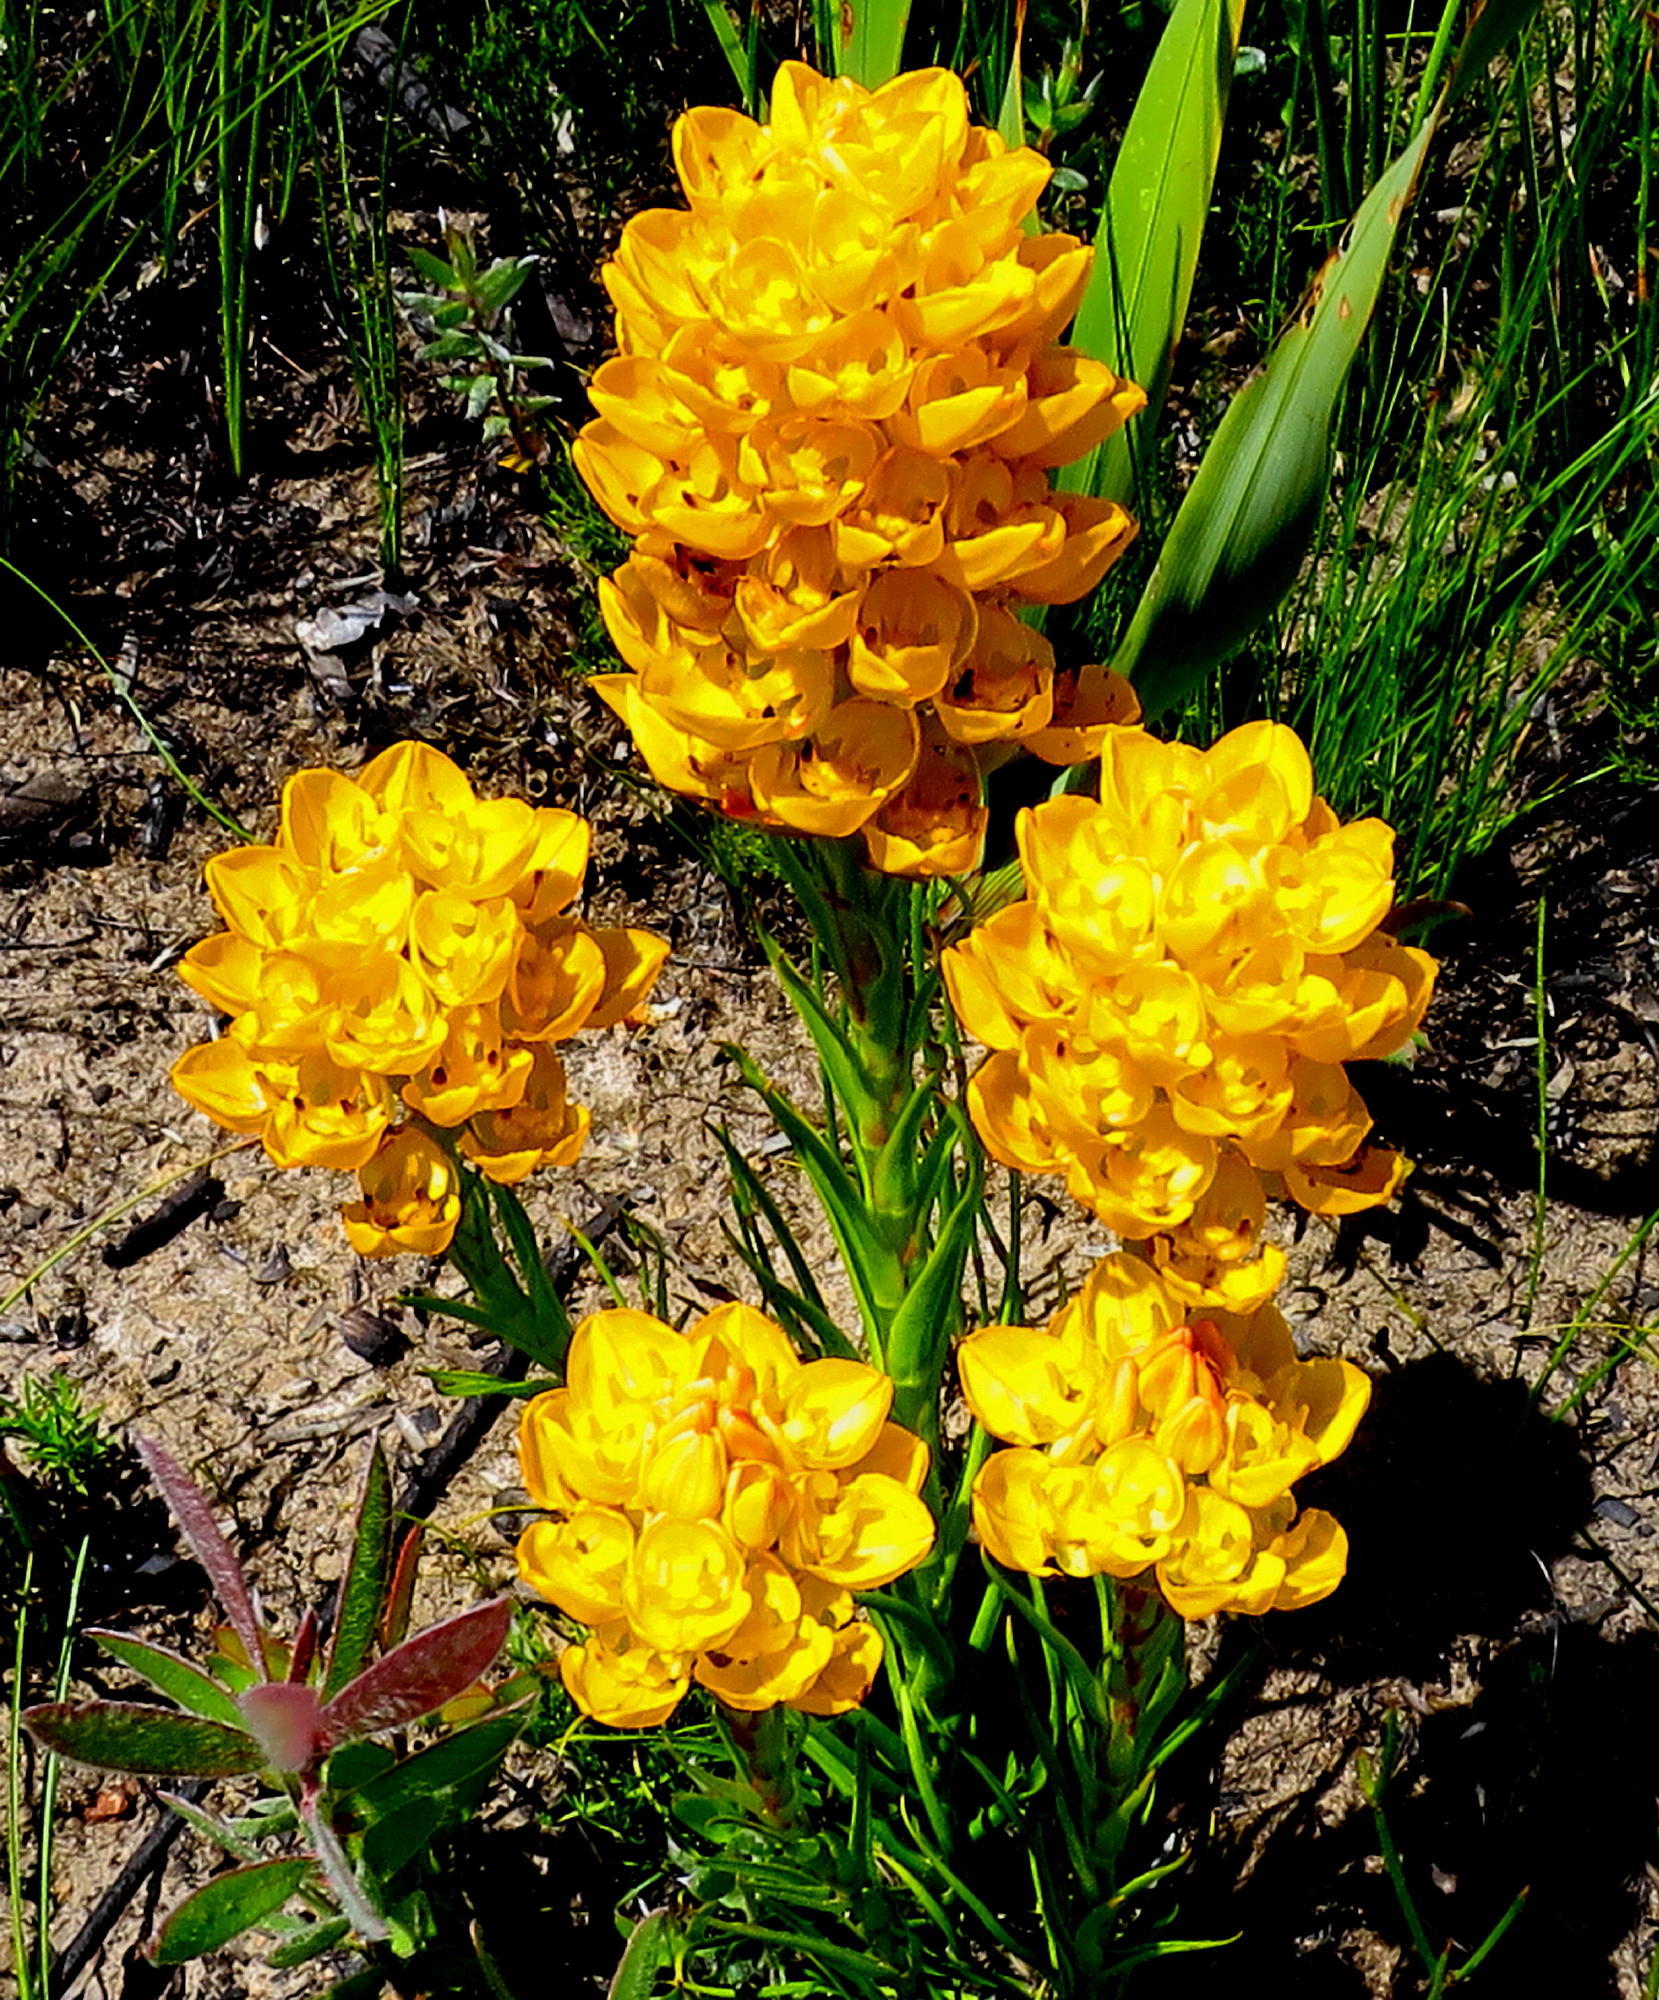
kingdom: Plantae
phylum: Tracheophyta
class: Liliopsida
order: Asparagales
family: Orchidaceae
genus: Ceratandra
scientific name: Ceratandra grandiflora
